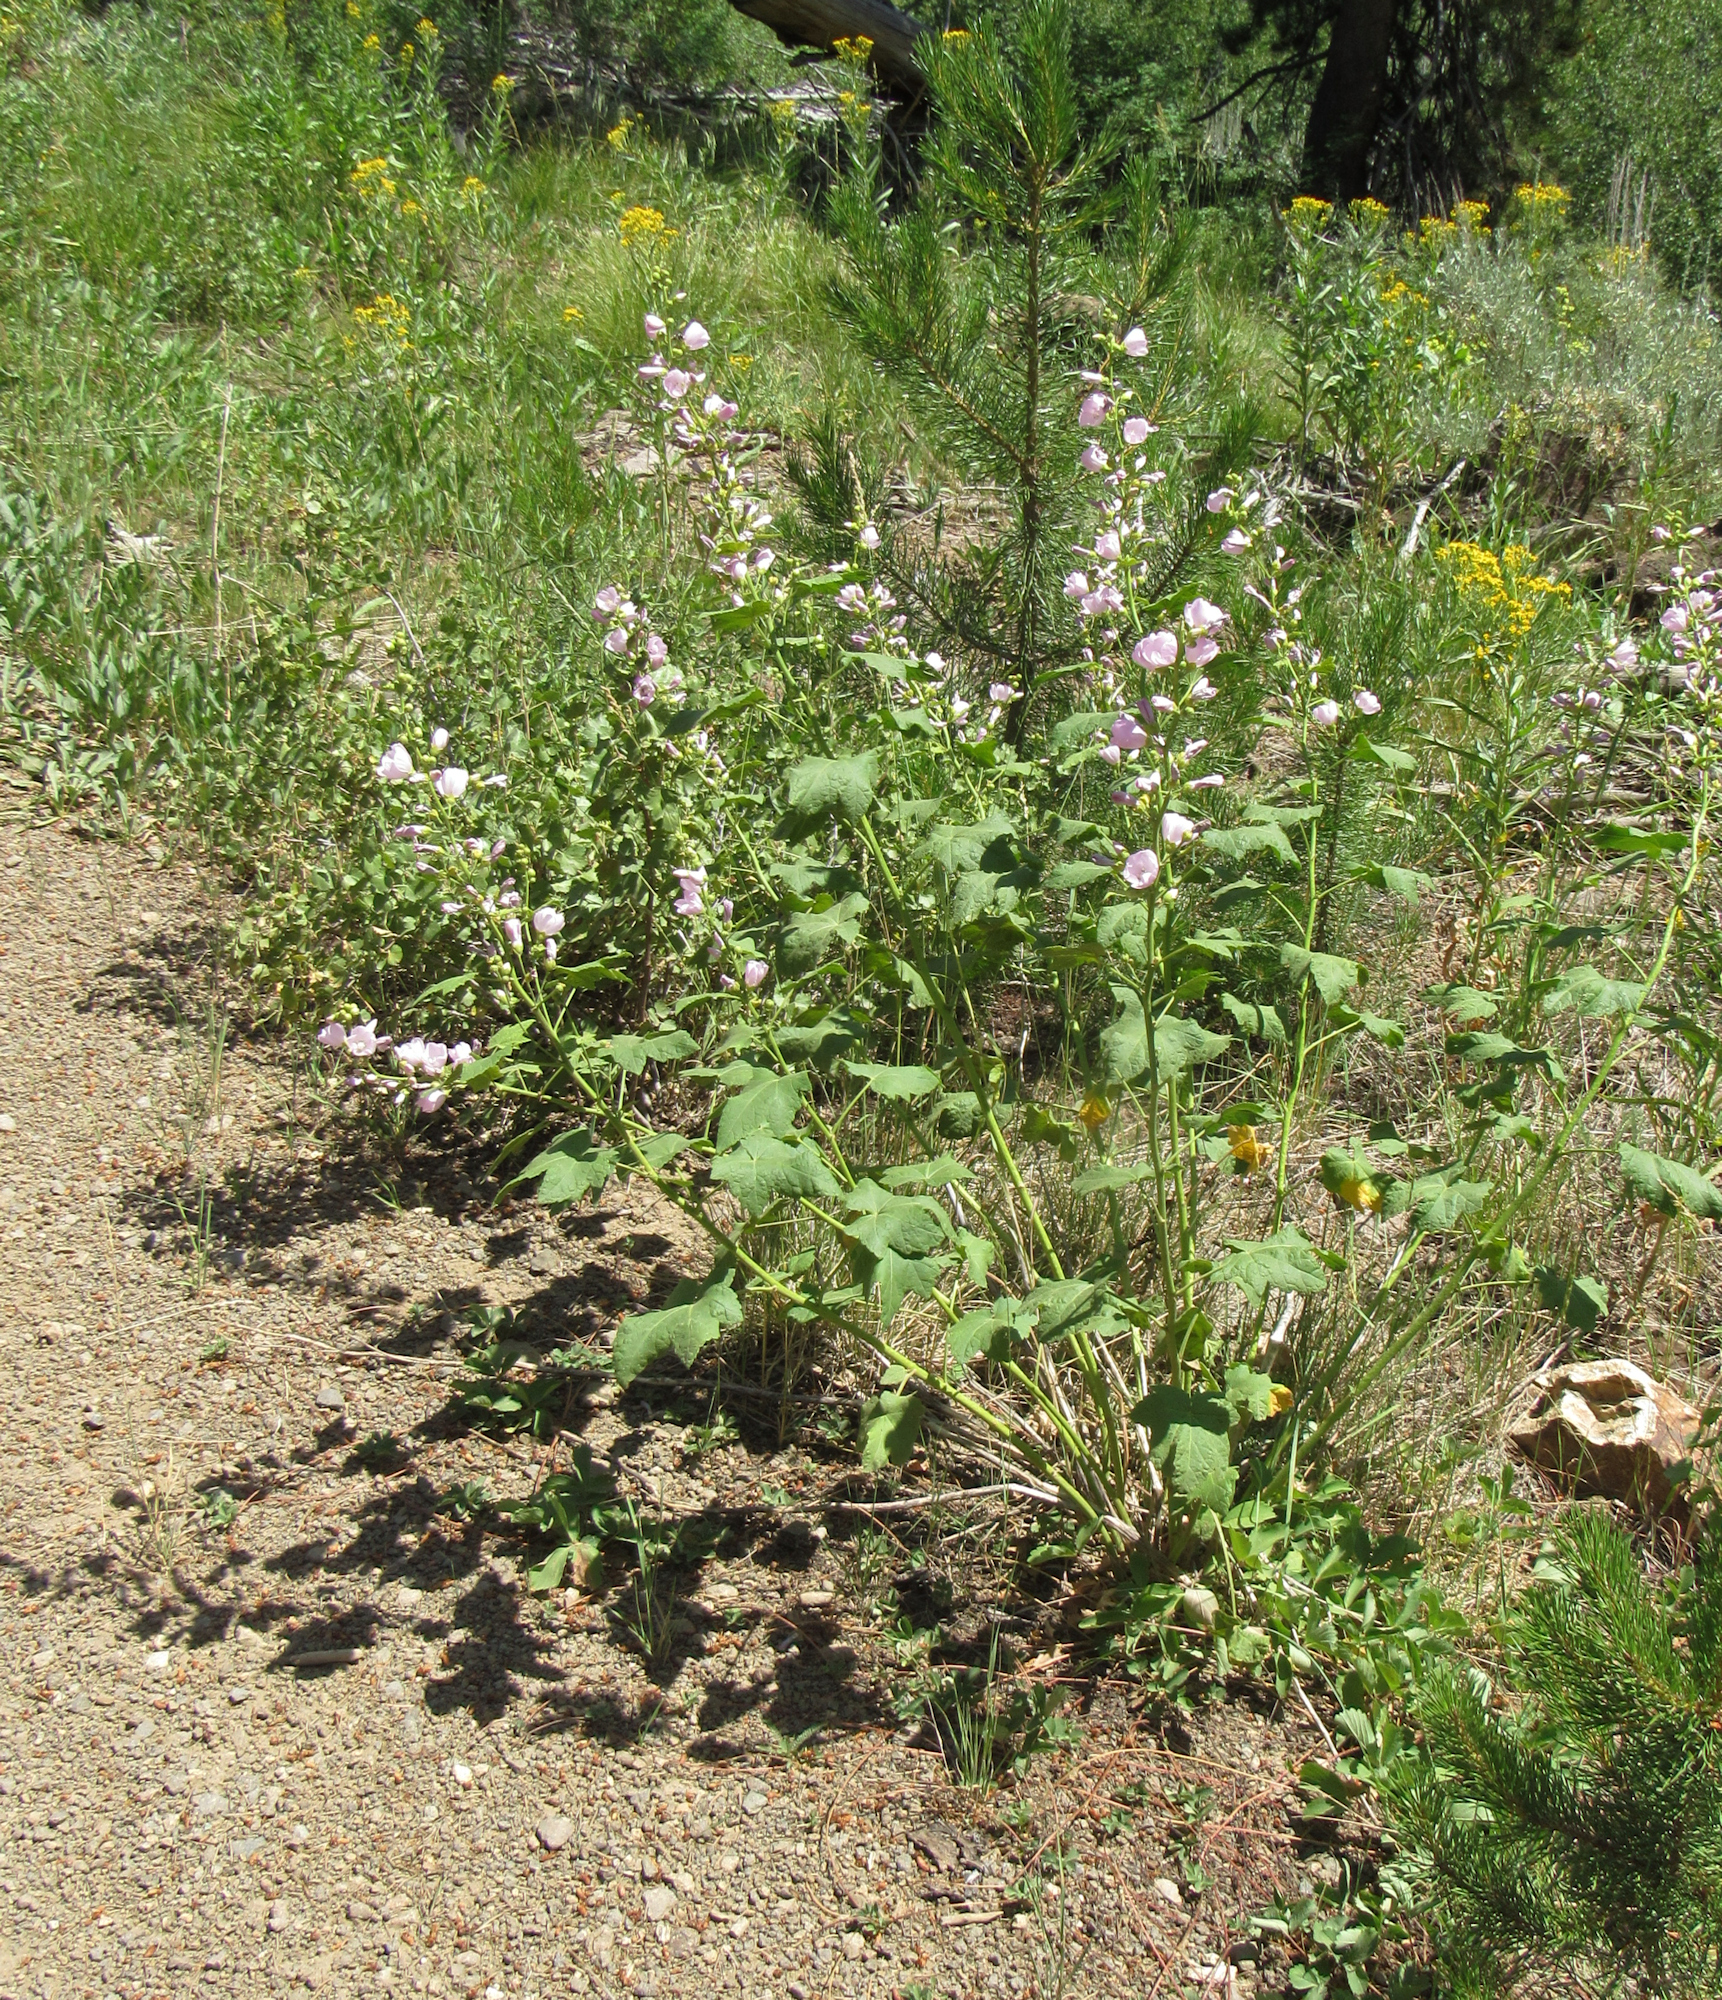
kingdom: Plantae
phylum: Tracheophyta
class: Magnoliopsida
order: Malvales
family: Malvaceae
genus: Iliamna
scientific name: Iliamna rivularis
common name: Wild hollyhock
